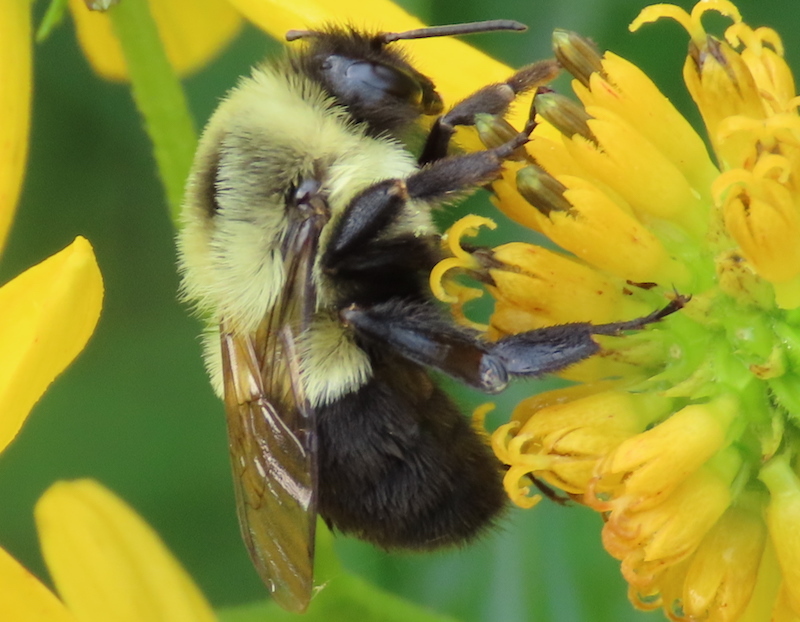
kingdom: Animalia
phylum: Arthropoda
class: Insecta
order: Hymenoptera
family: Apidae
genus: Bombus
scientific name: Bombus impatiens
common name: Common eastern bumble bee
